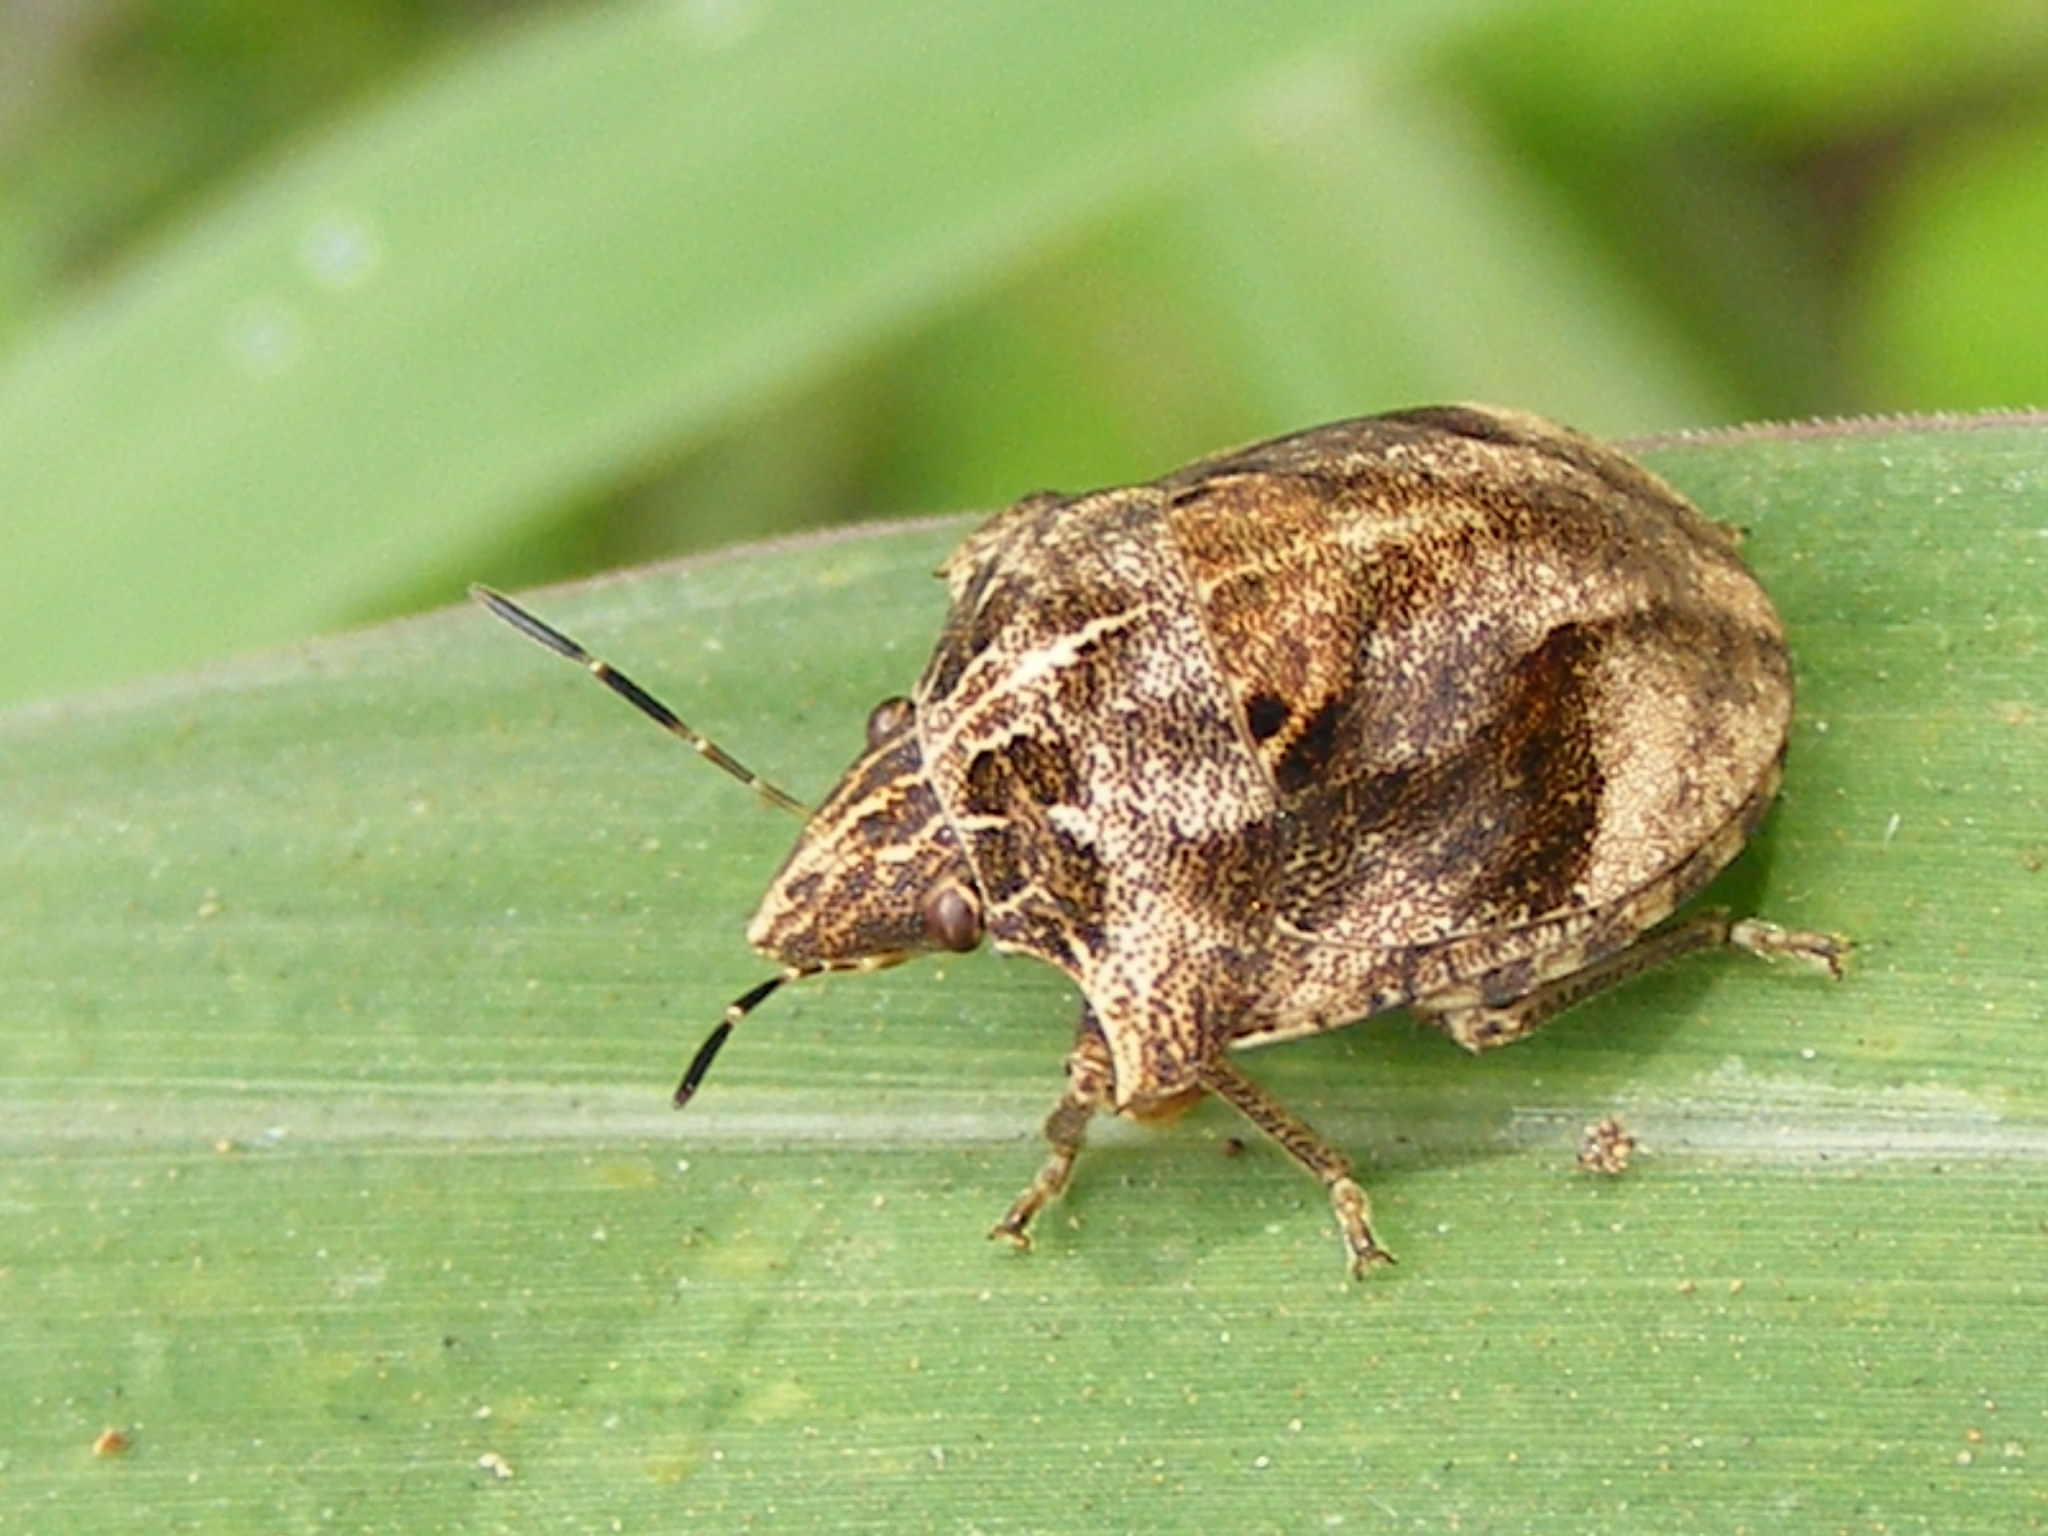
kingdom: Animalia
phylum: Arthropoda
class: Insecta
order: Hemiptera
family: Scutelleridae
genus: Hotea
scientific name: Hotea subfasciata
